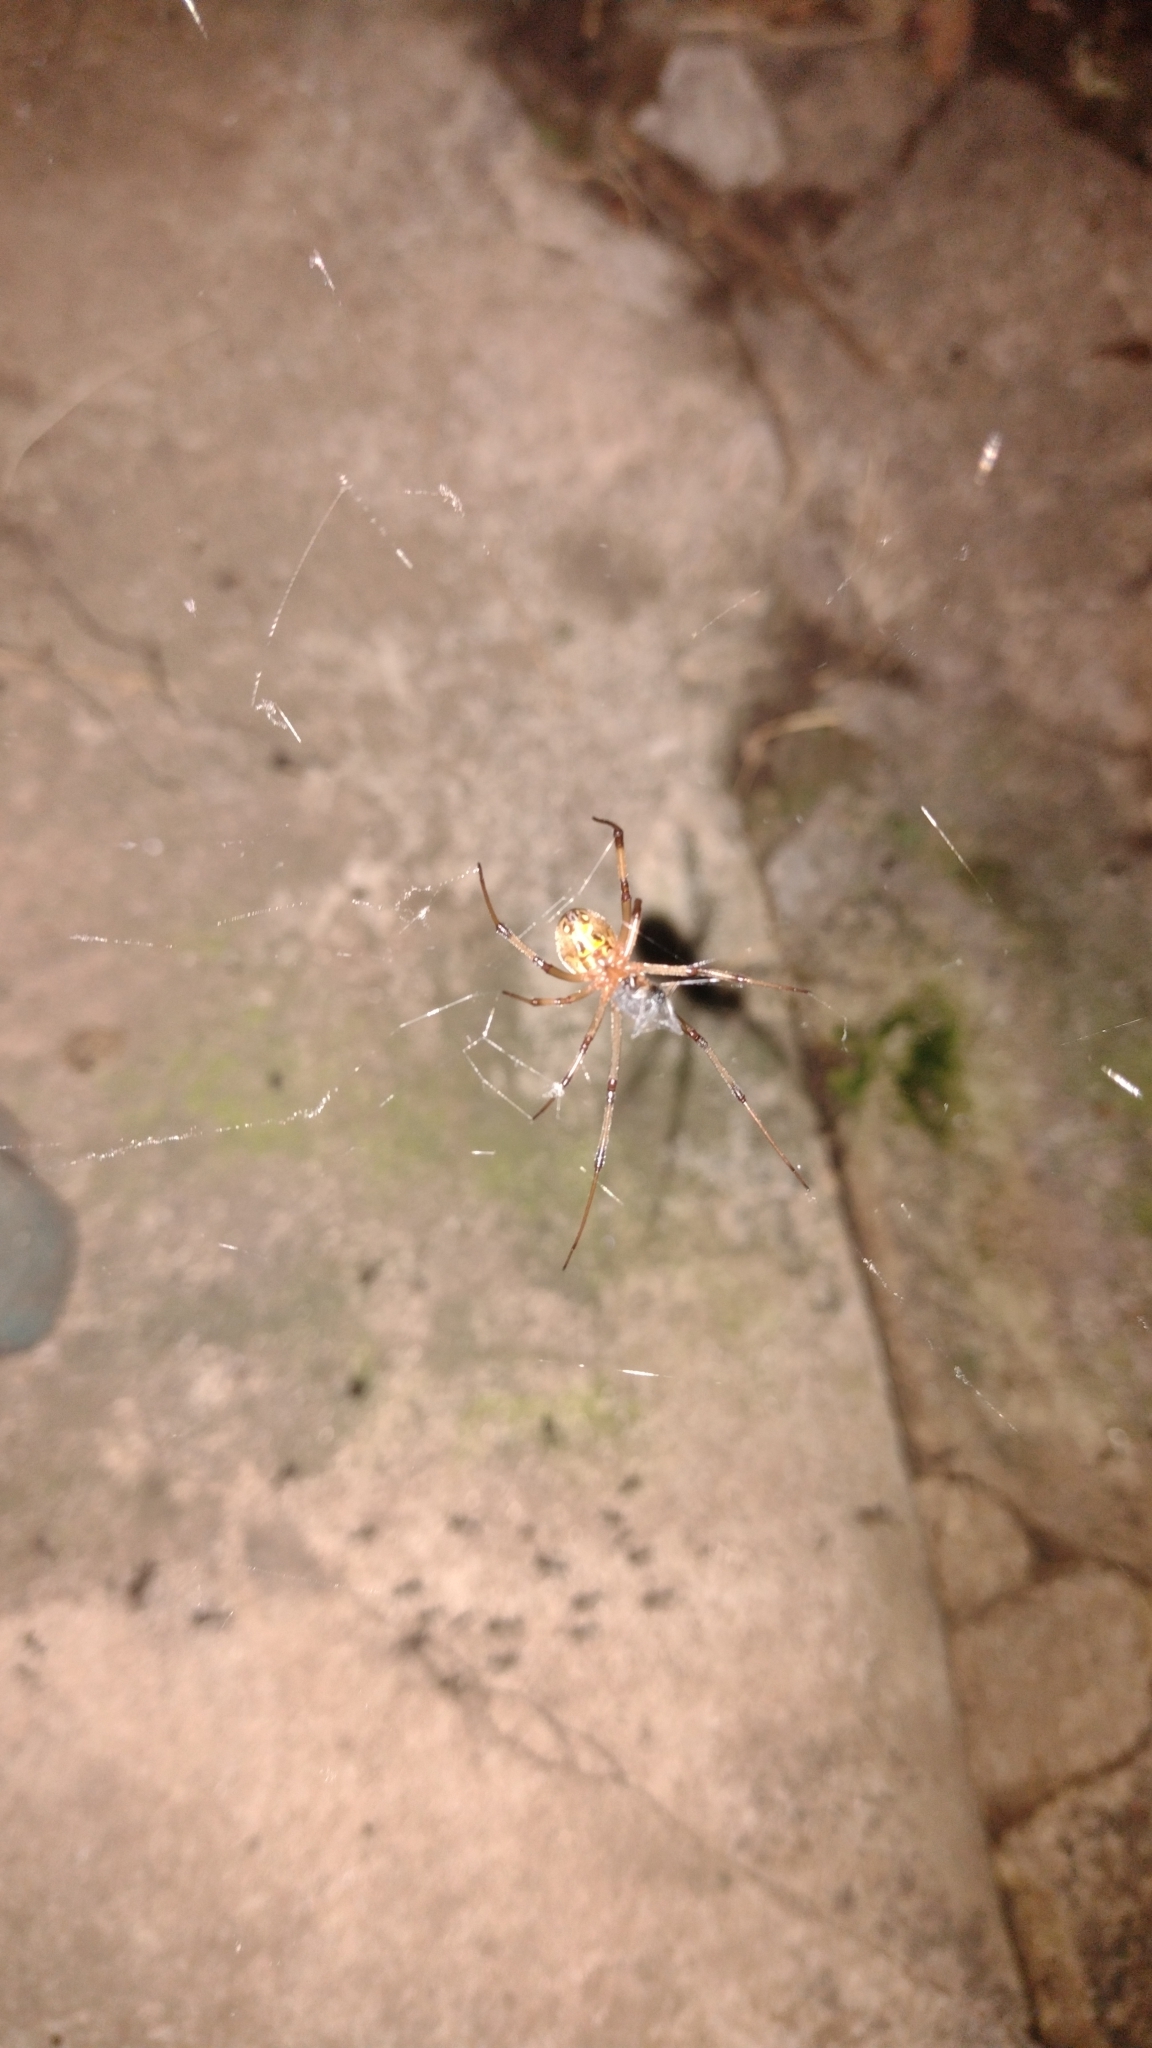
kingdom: Animalia
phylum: Arthropoda
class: Arachnida
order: Araneae
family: Theridiidae
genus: Latrodectus
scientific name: Latrodectus geometricus
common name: Brown widow spider
